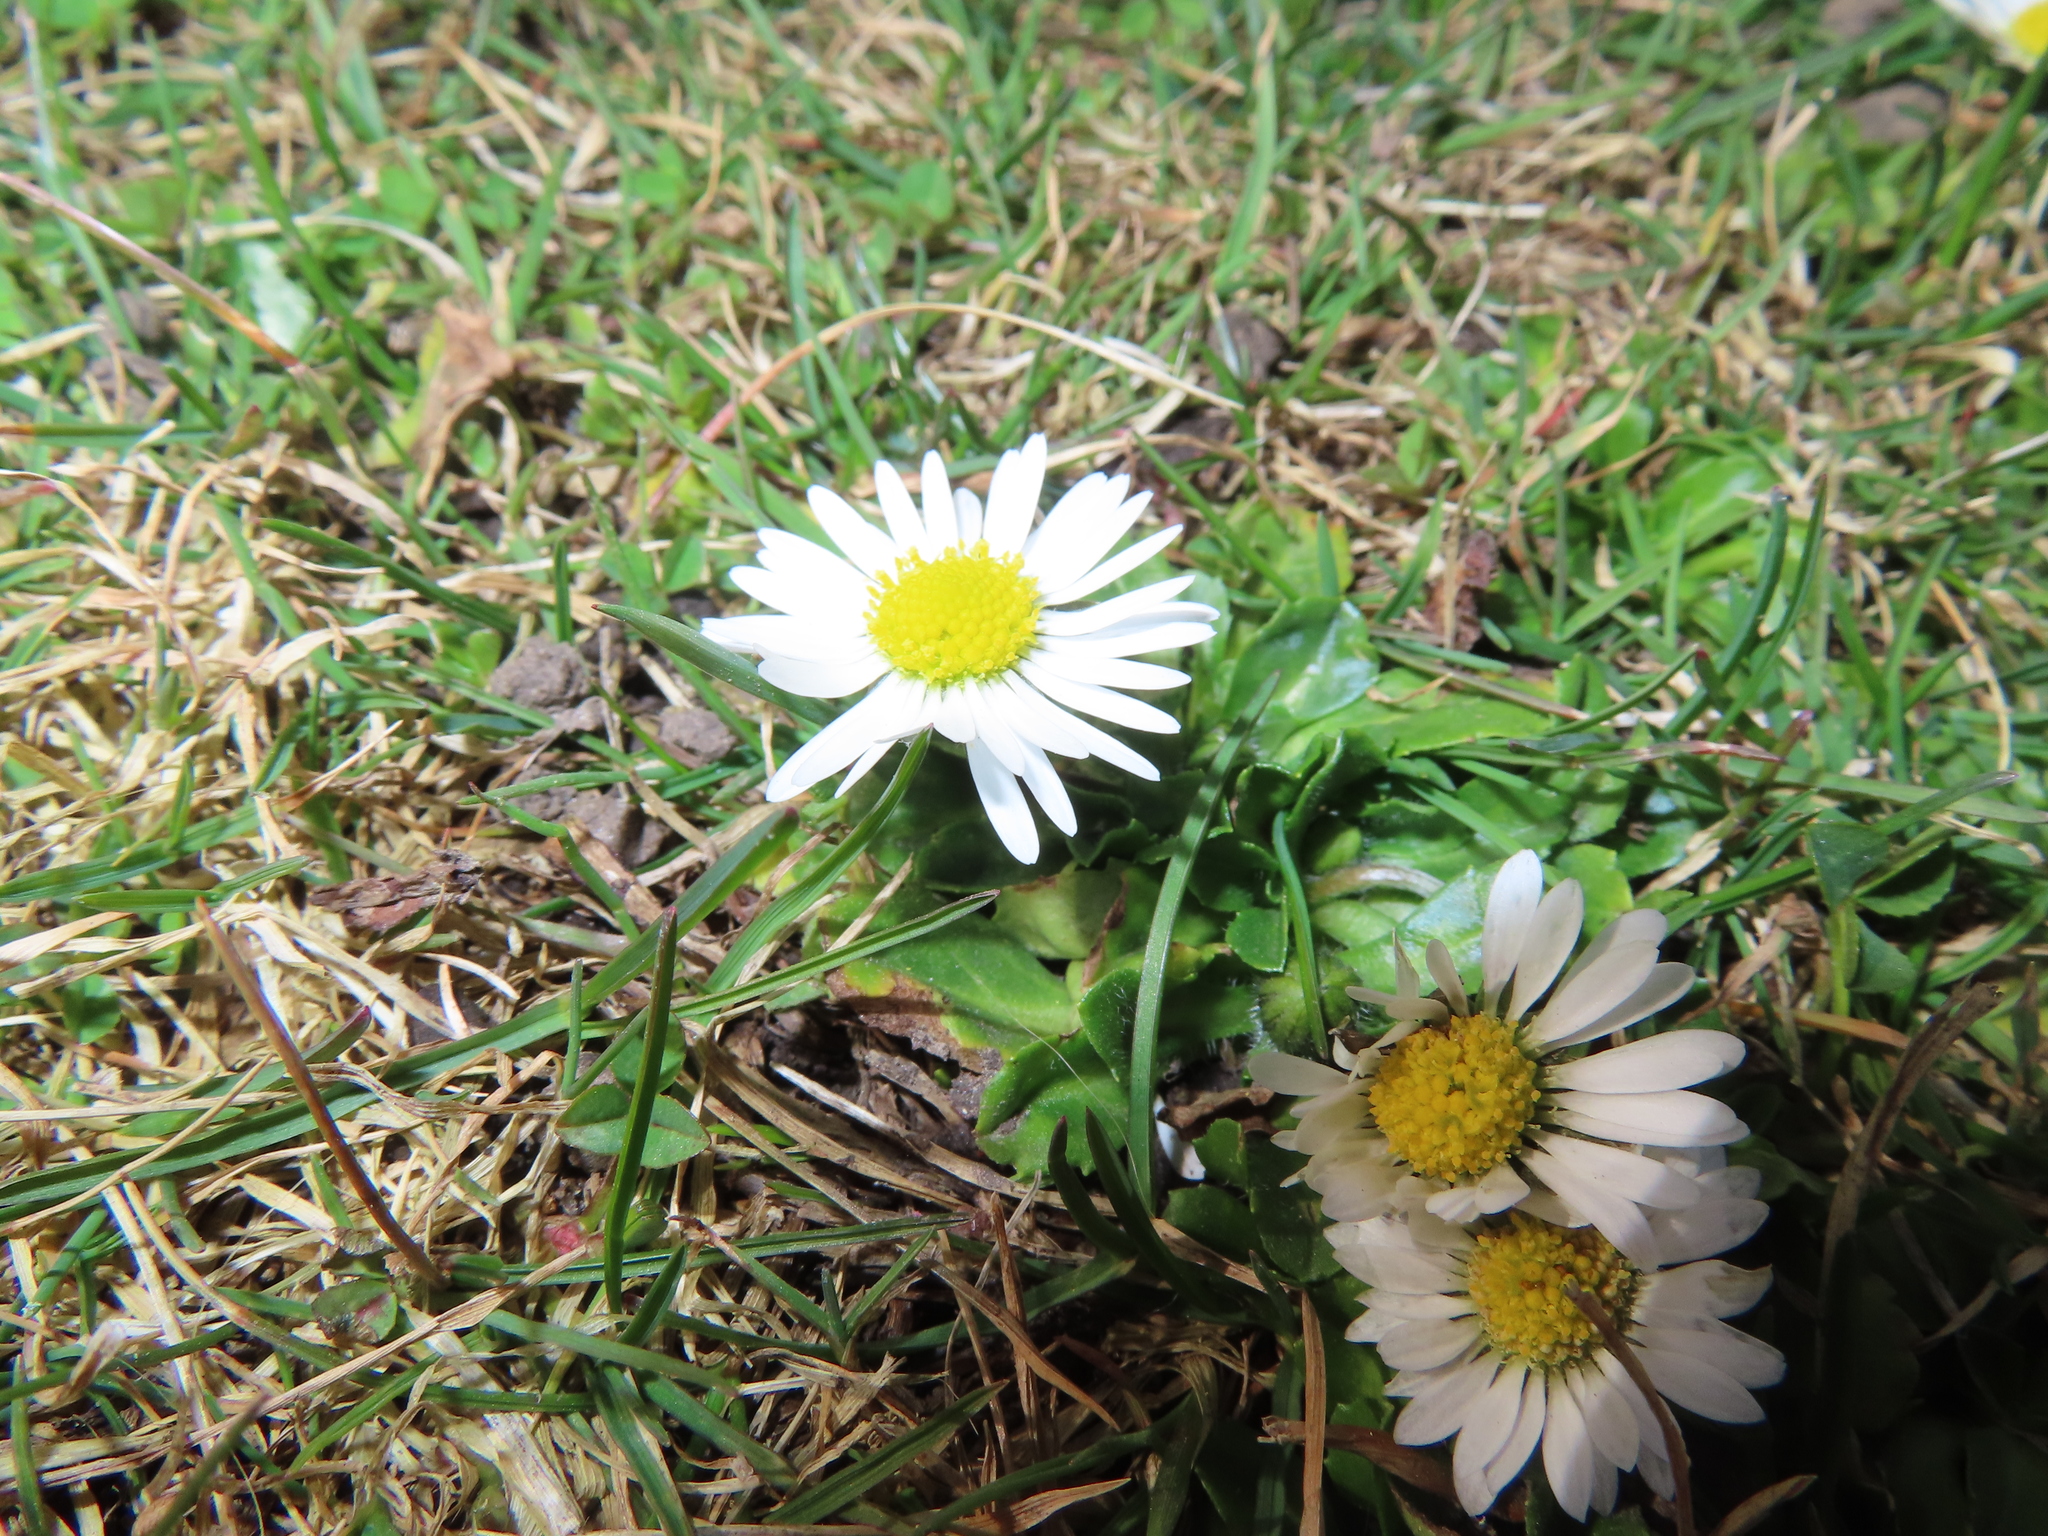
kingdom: Plantae
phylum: Tracheophyta
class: Magnoliopsida
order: Asterales
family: Asteraceae
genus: Bellis
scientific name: Bellis perennis
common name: Lawndaisy
